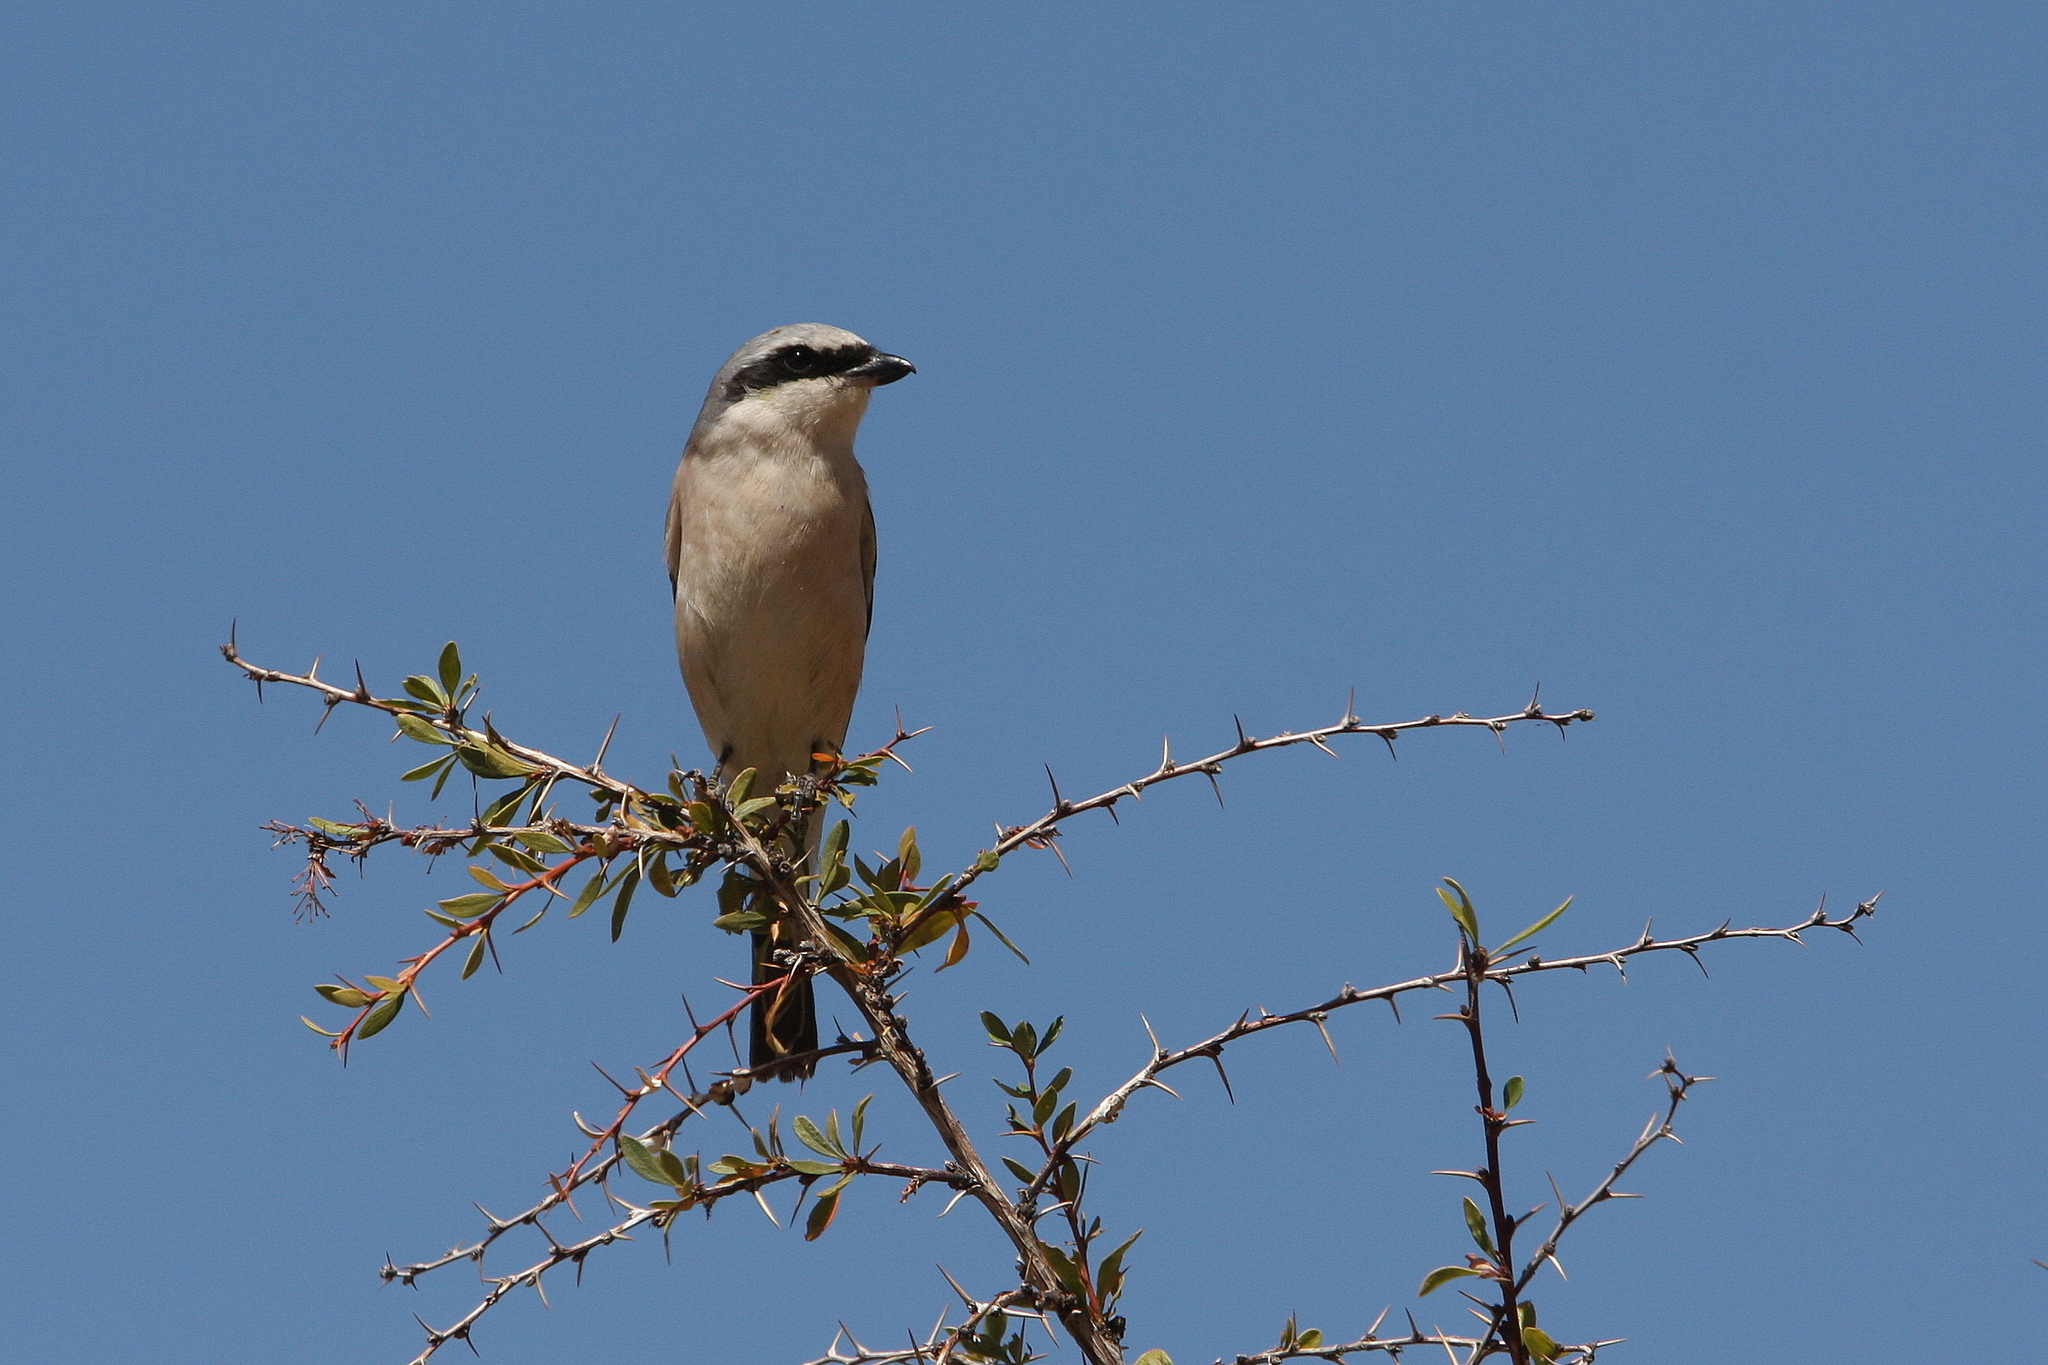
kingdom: Animalia
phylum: Chordata
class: Aves
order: Passeriformes
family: Laniidae
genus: Lanius
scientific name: Lanius collurio
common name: Red-backed shrike
